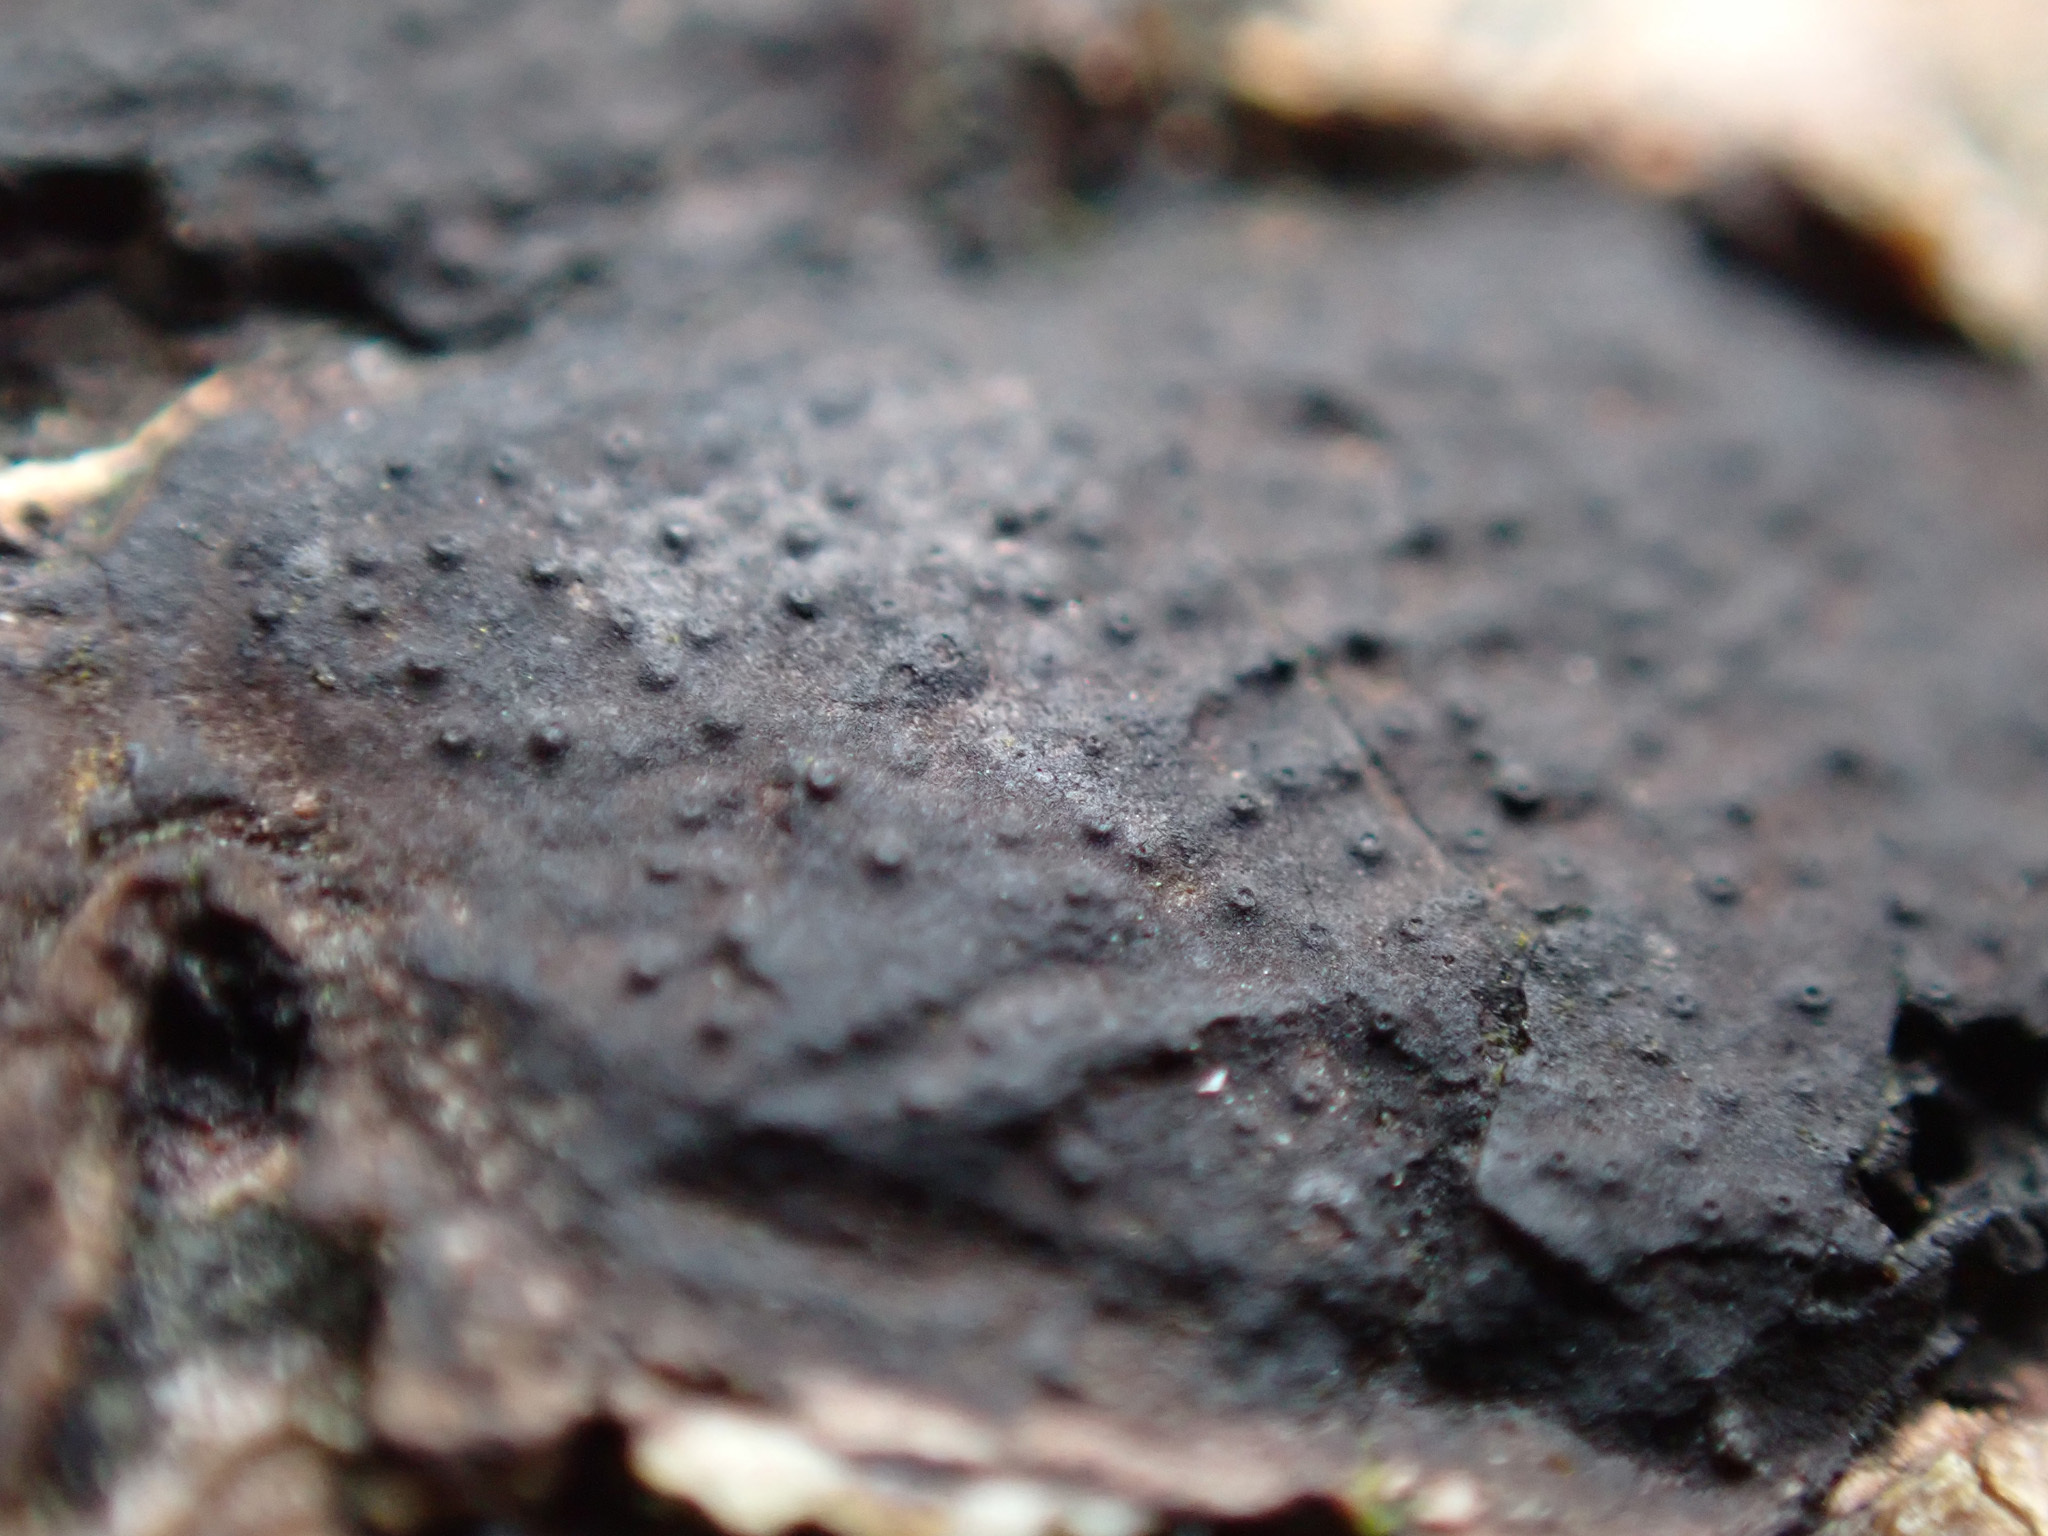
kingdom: Fungi
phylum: Ascomycota
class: Sordariomycetes
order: Xylariales
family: Graphostromataceae
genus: Biscogniauxia
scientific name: Biscogniauxia nummularia
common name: Beech tarcrust
